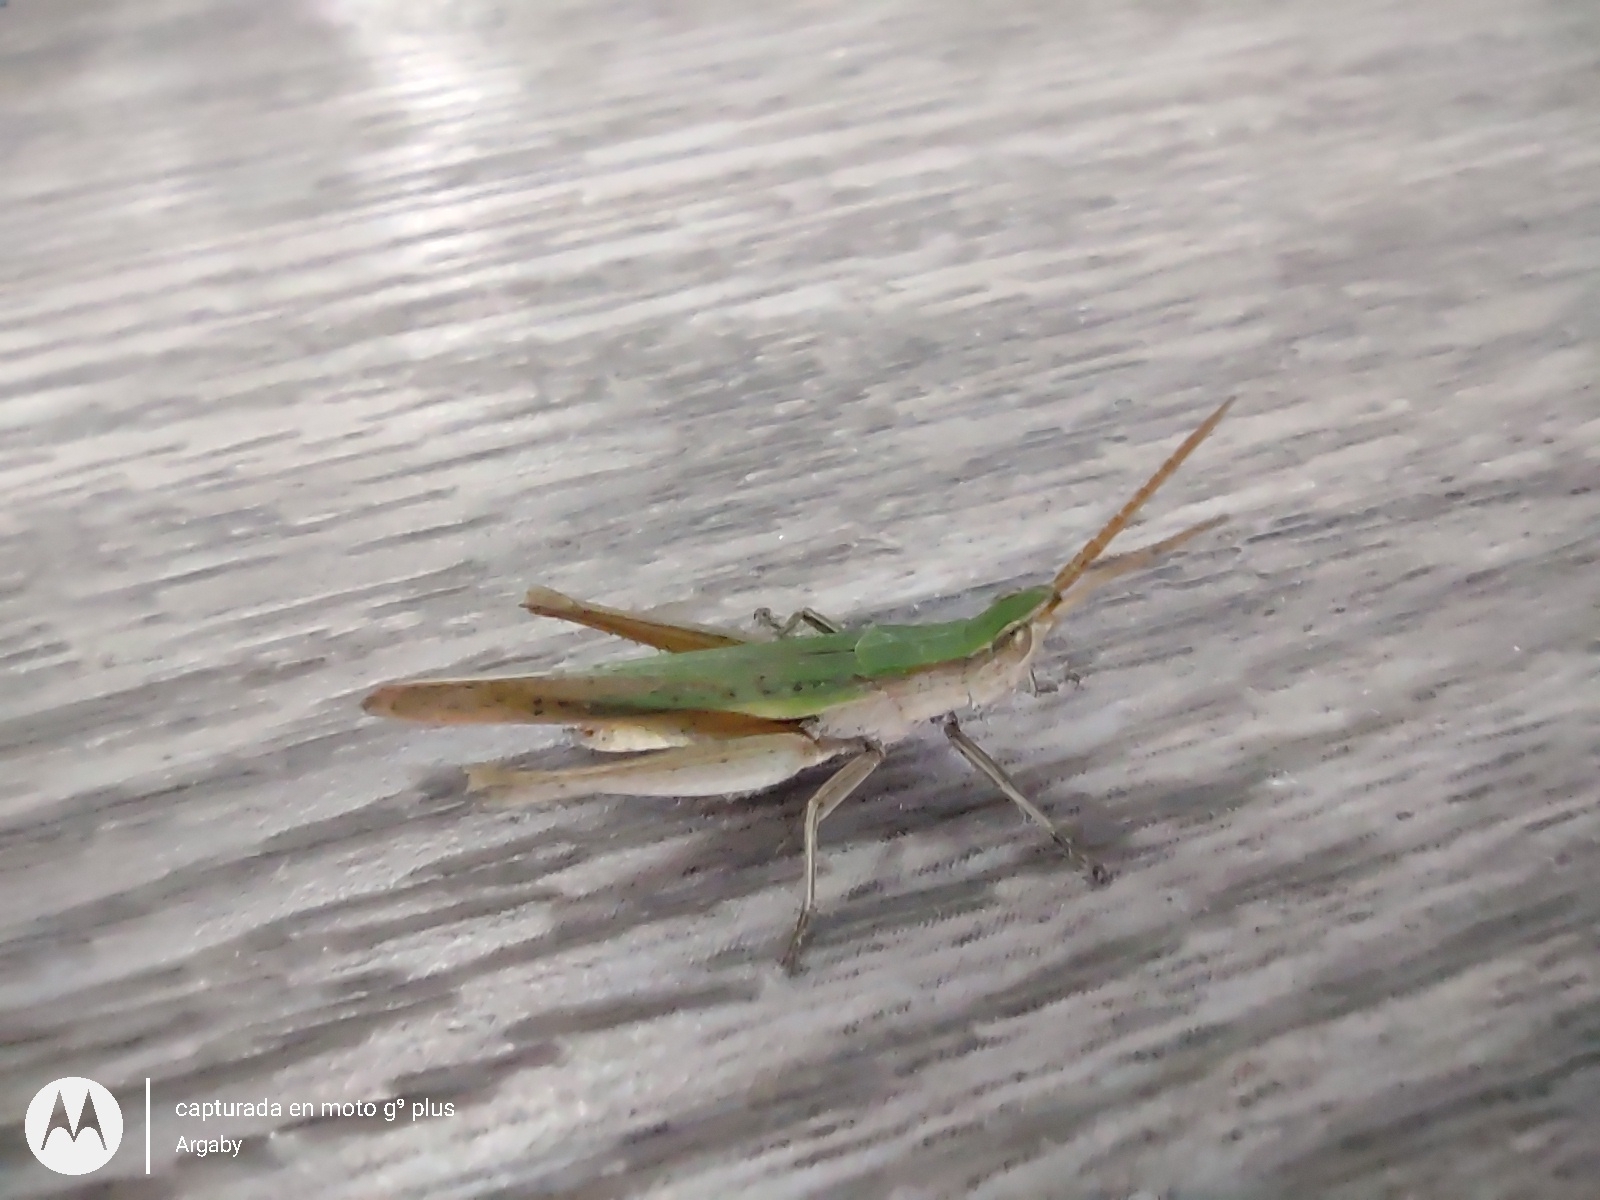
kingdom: Animalia
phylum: Arthropoda
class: Insecta
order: Orthoptera
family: Acrididae
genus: Allotruxalis
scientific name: Allotruxalis gracilis
